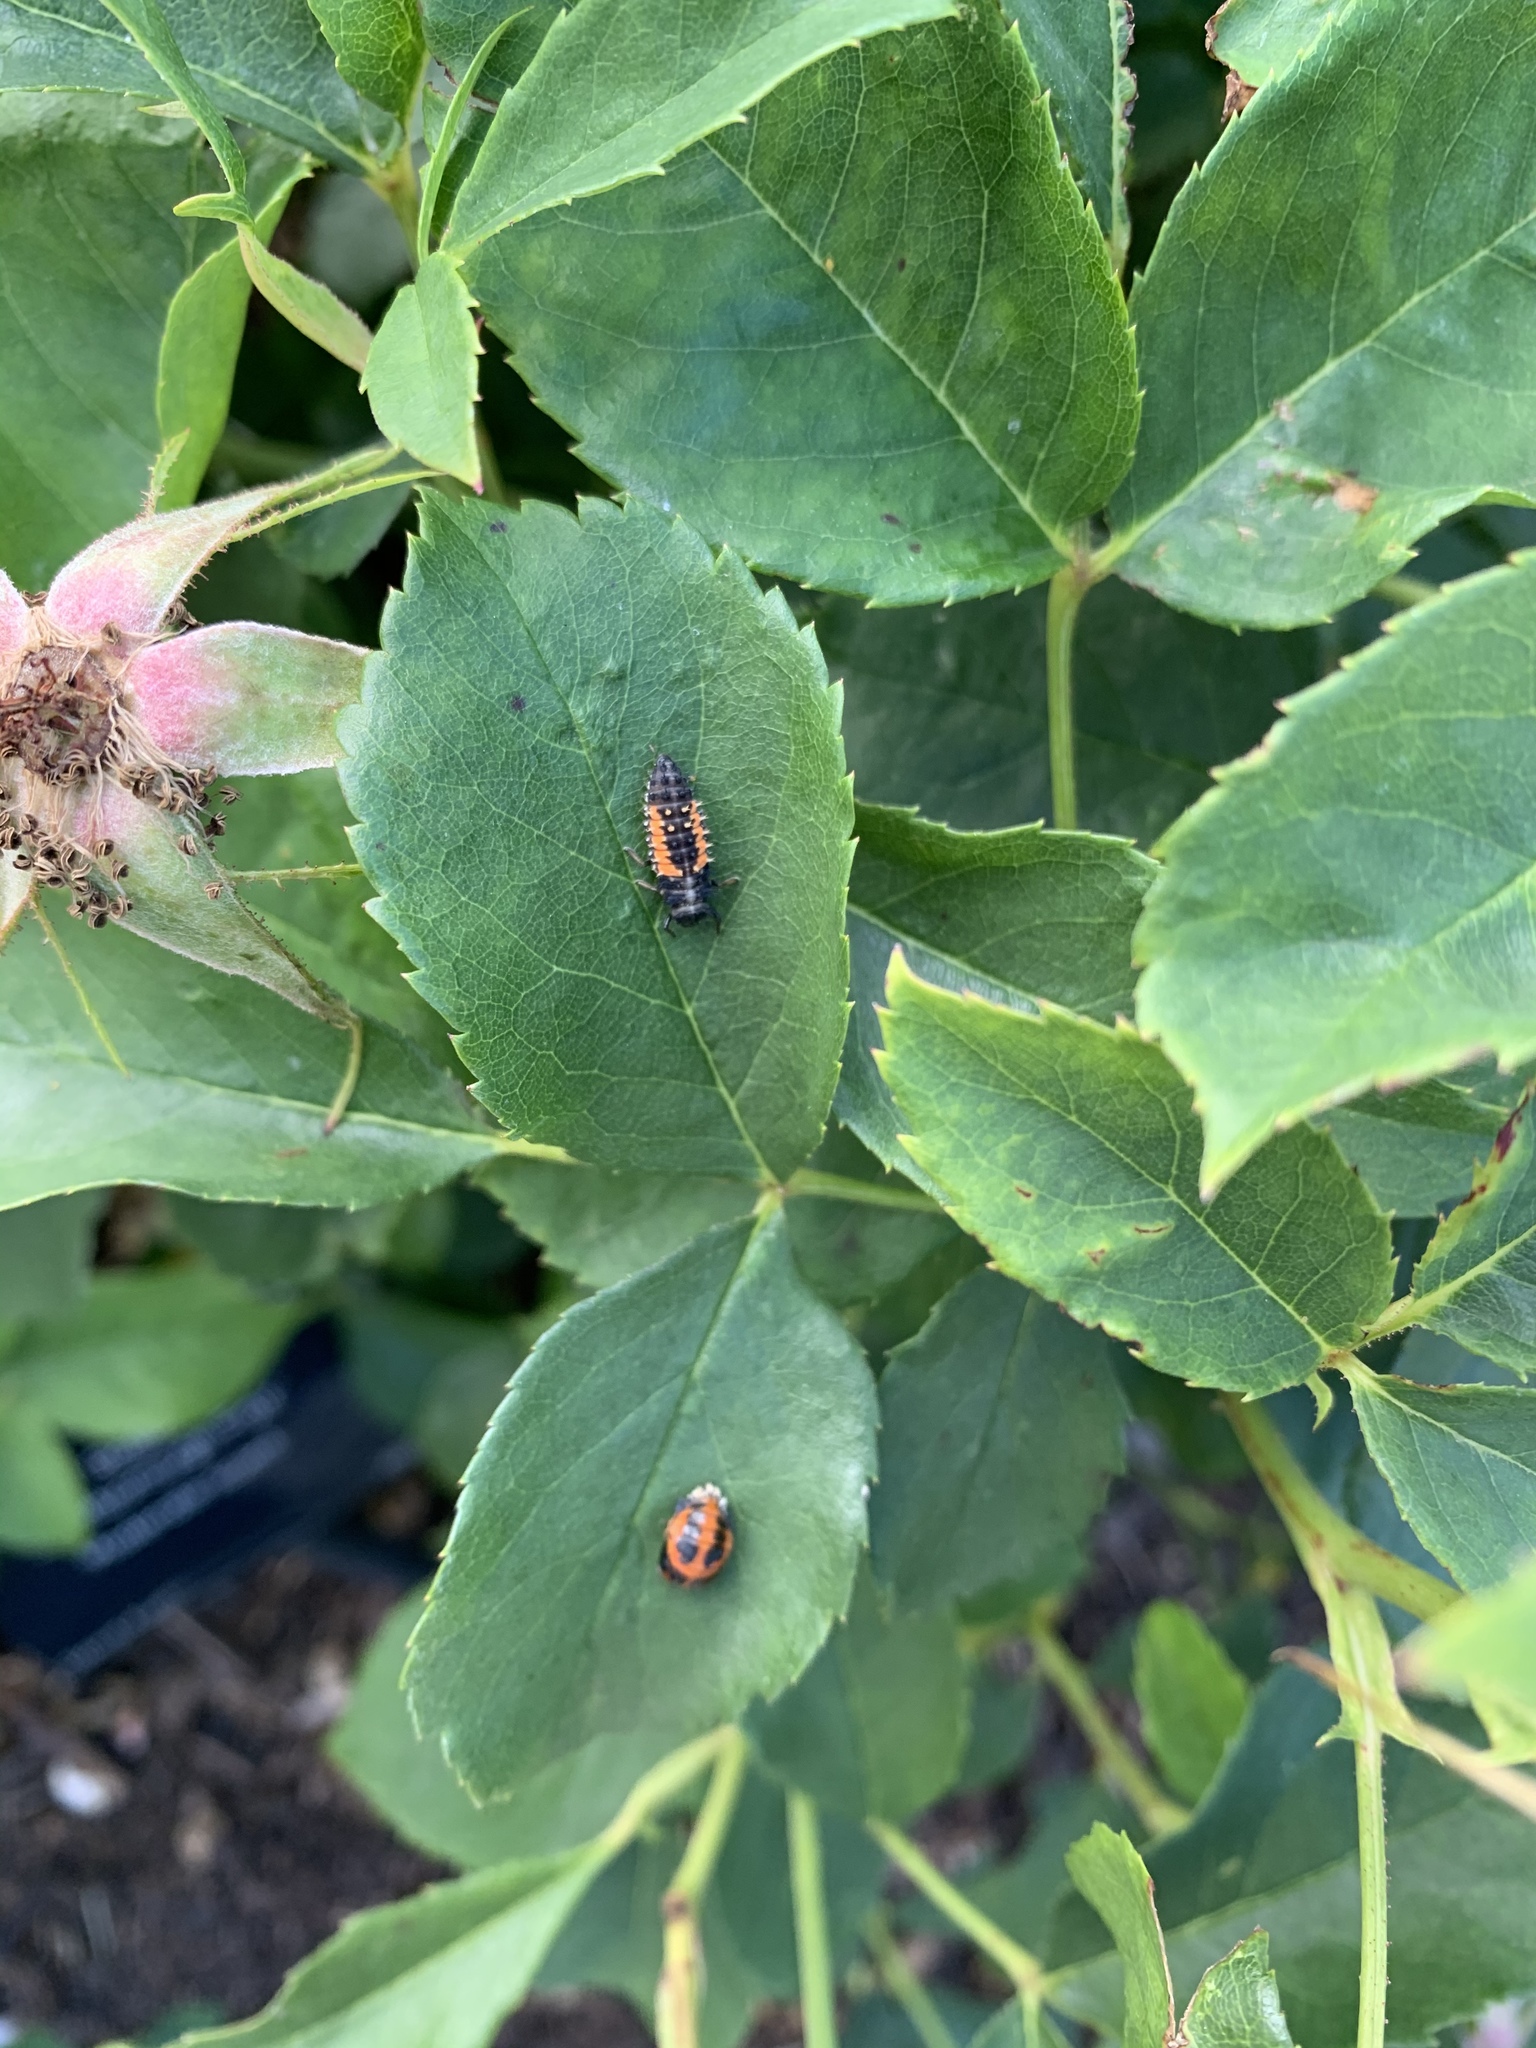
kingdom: Animalia
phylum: Arthropoda
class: Insecta
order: Coleoptera
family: Coccinellidae
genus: Harmonia
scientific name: Harmonia axyridis
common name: Harlequin ladybird
